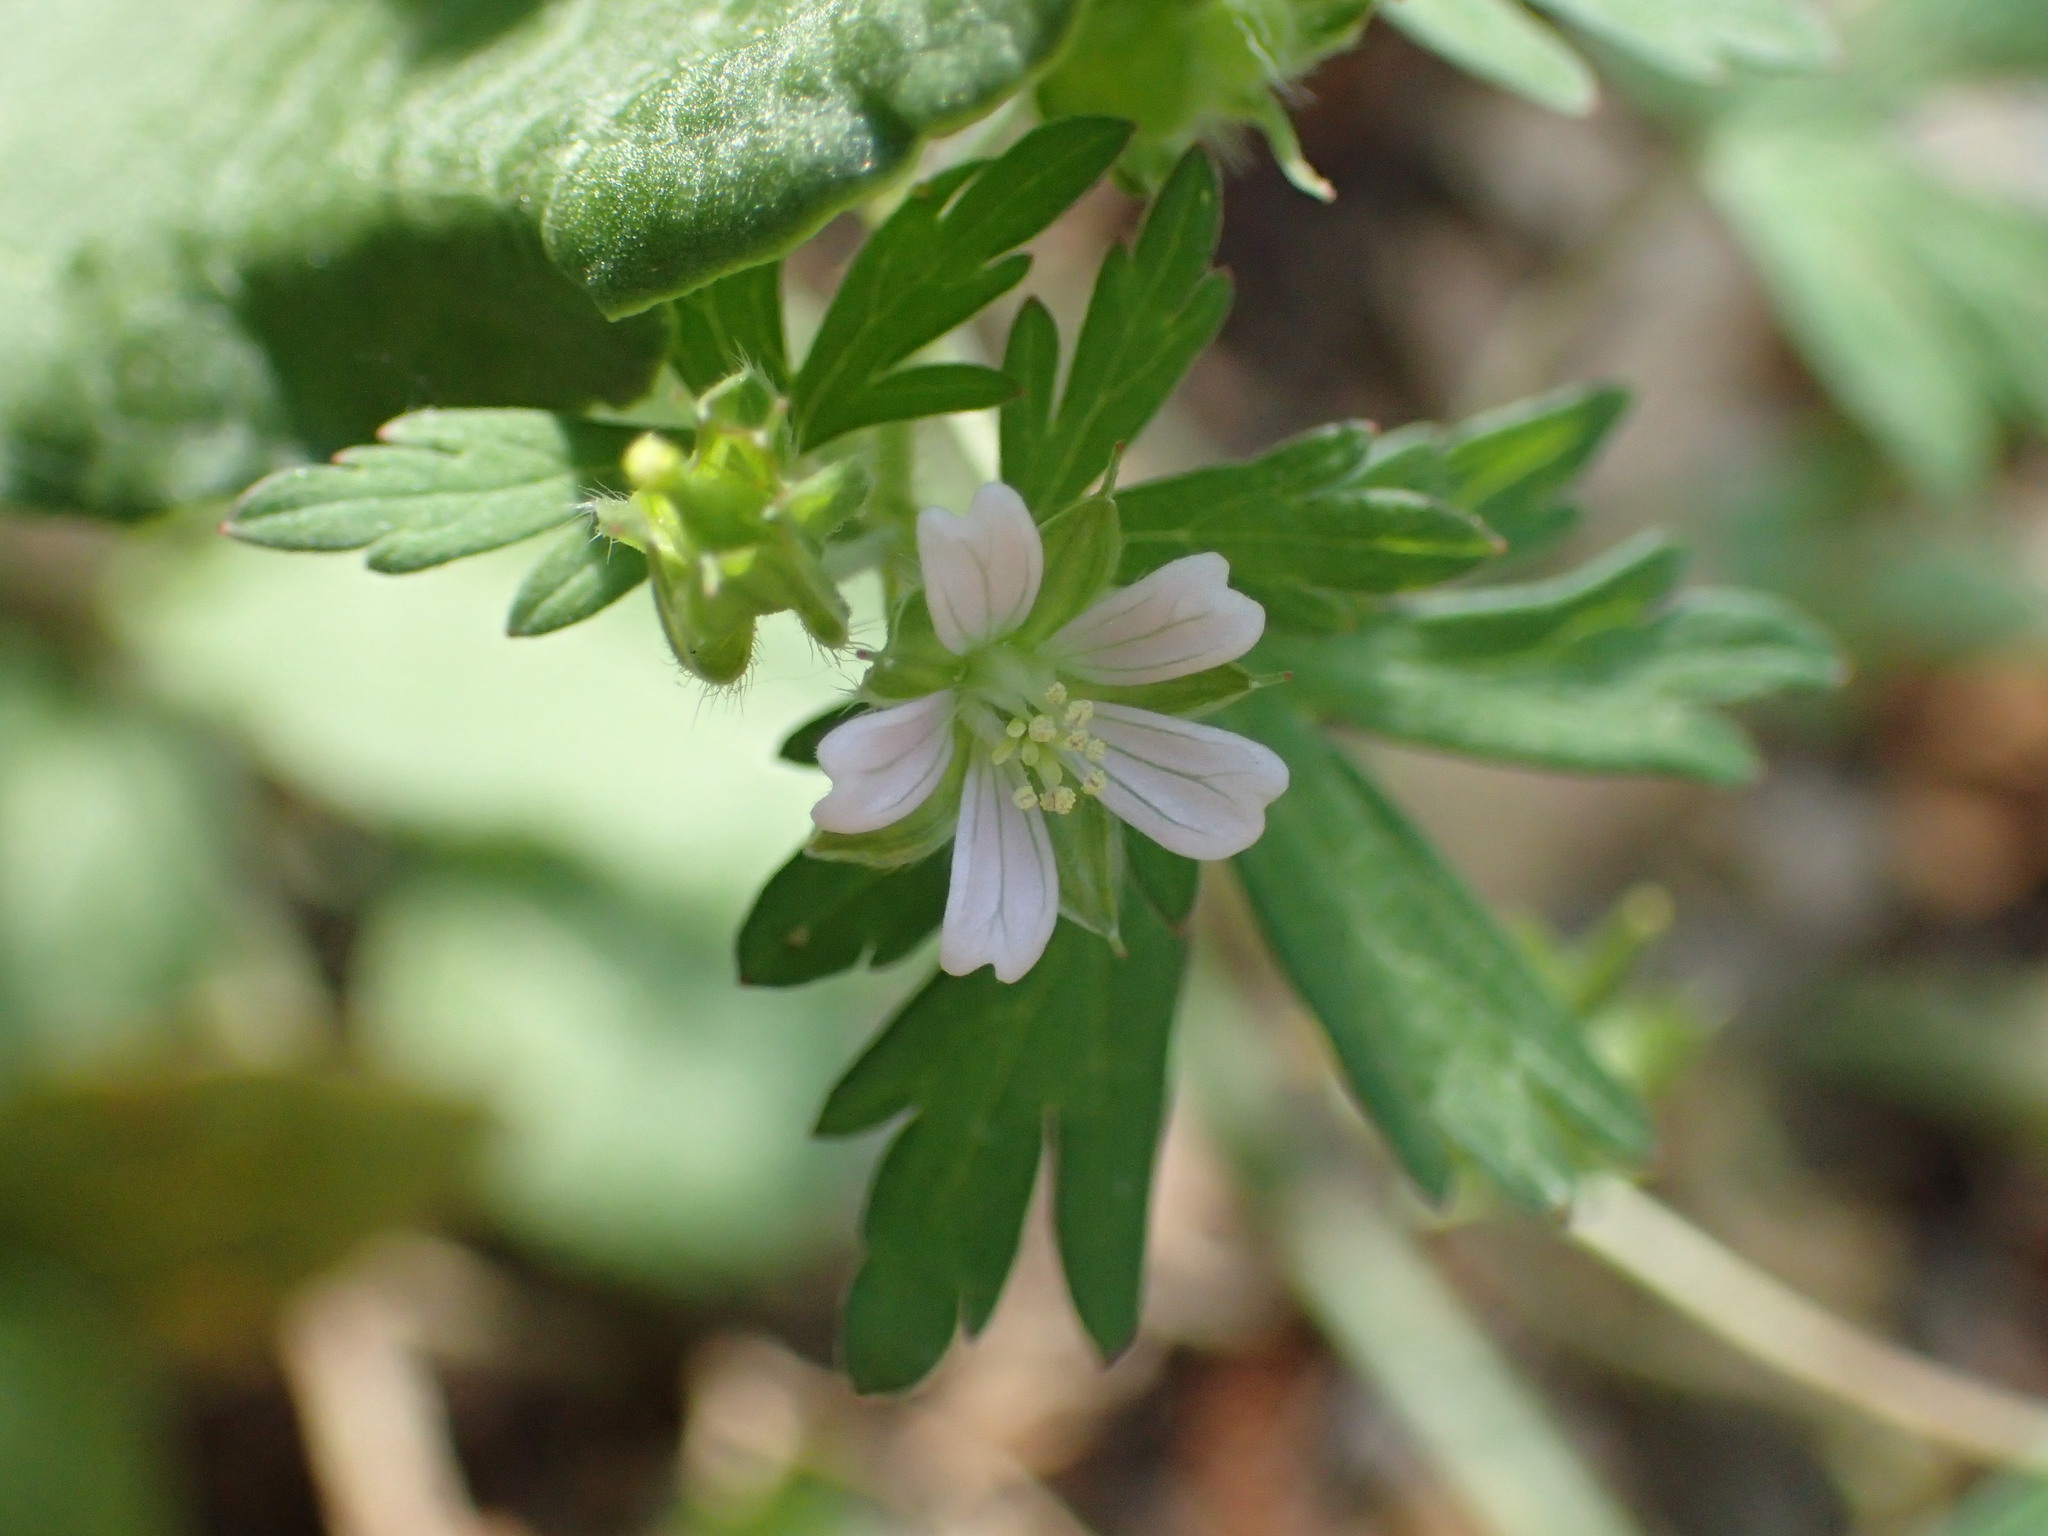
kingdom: Plantae
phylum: Tracheophyta
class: Magnoliopsida
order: Geraniales
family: Geraniaceae
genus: Geranium
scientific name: Geranium carolinianum
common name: Carolina crane's-bill
